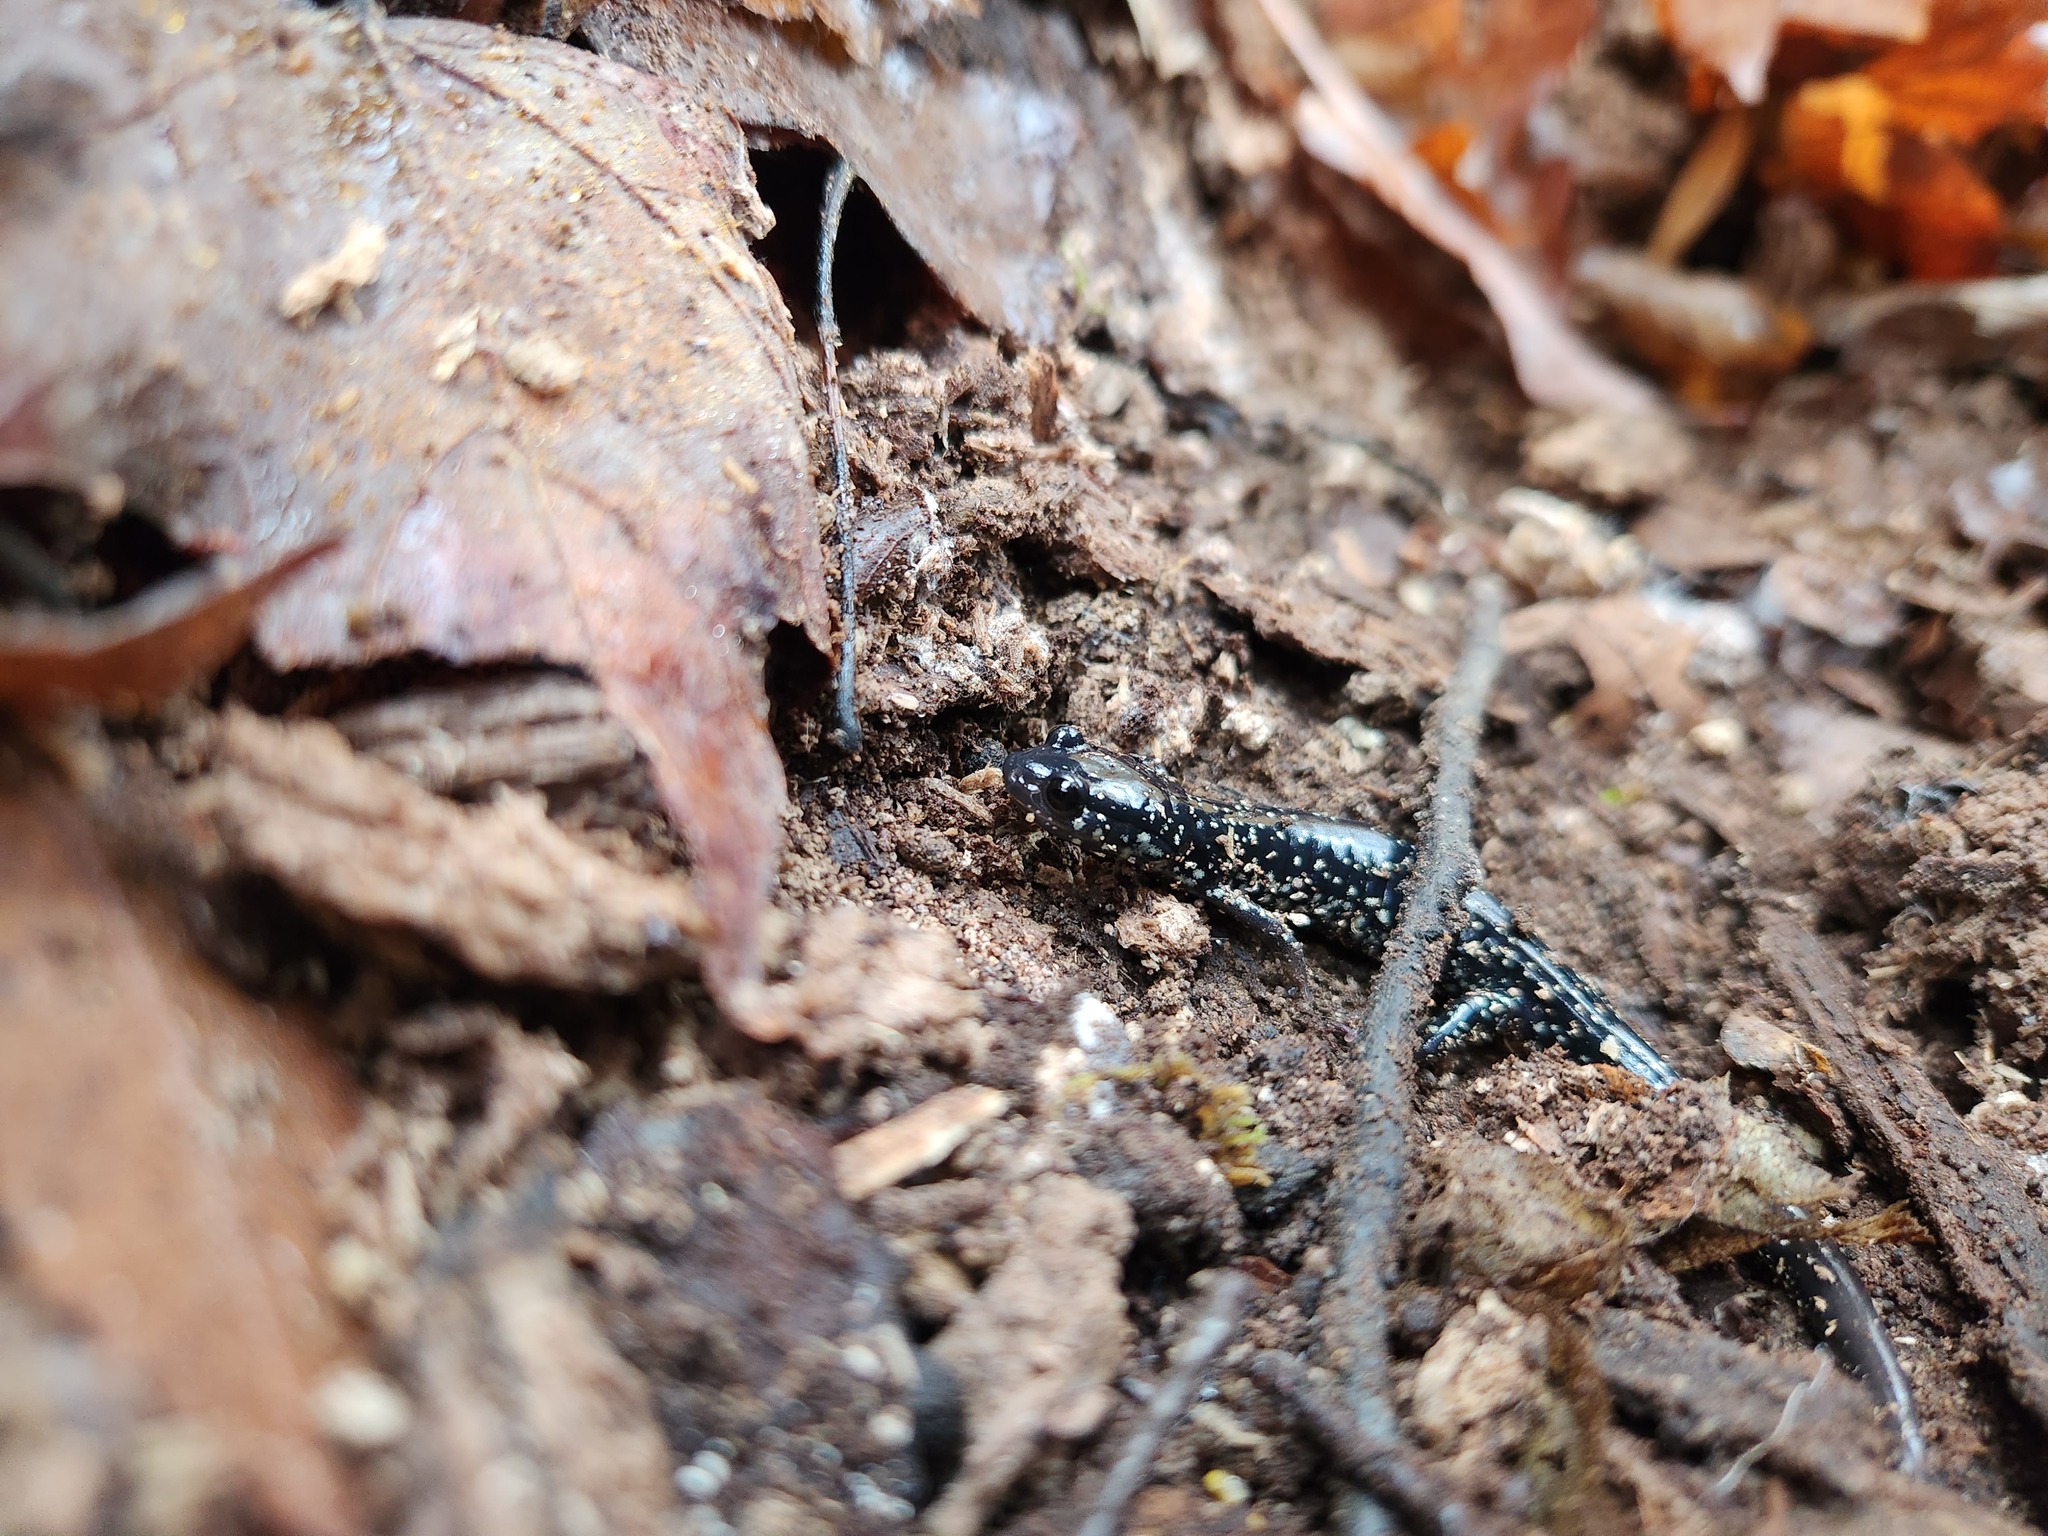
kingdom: Animalia
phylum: Chordata
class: Amphibia
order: Caudata
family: Plethodontidae
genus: Plethodon
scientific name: Plethodon glutinosus
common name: Northern slimy salamander
